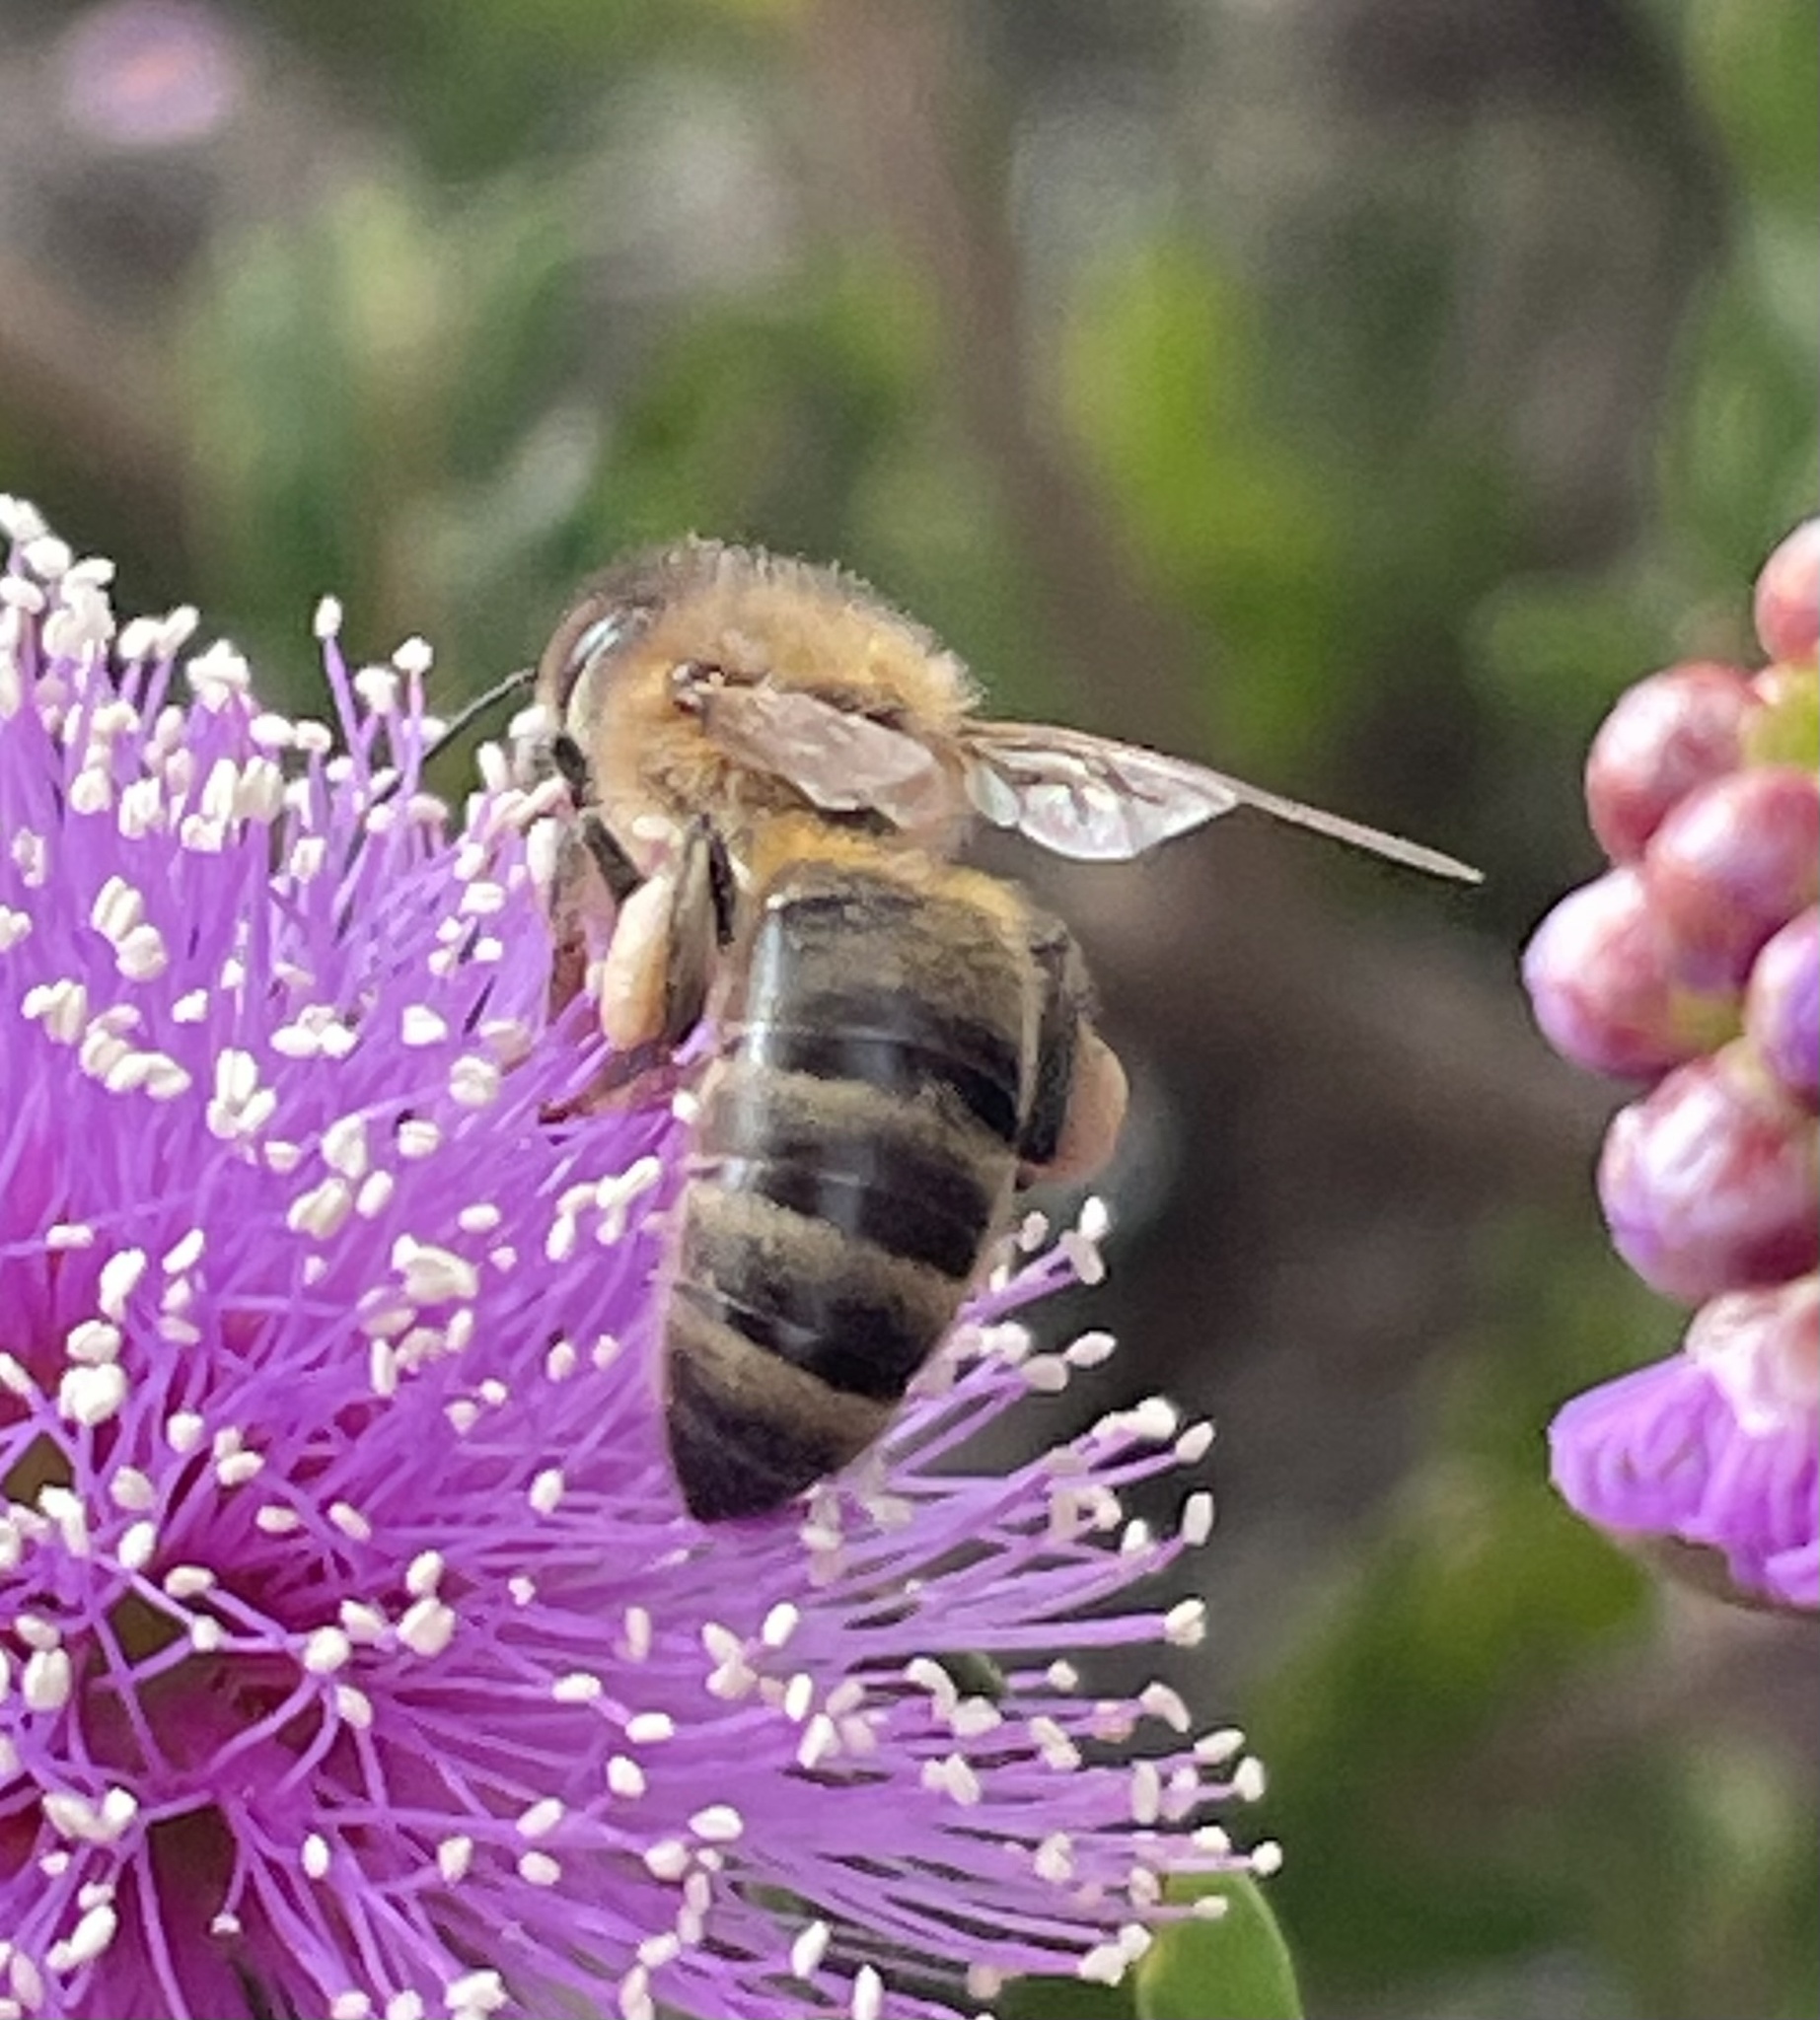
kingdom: Animalia
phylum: Arthropoda
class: Insecta
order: Hymenoptera
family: Apidae
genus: Apis
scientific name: Apis mellifera
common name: Honey bee
